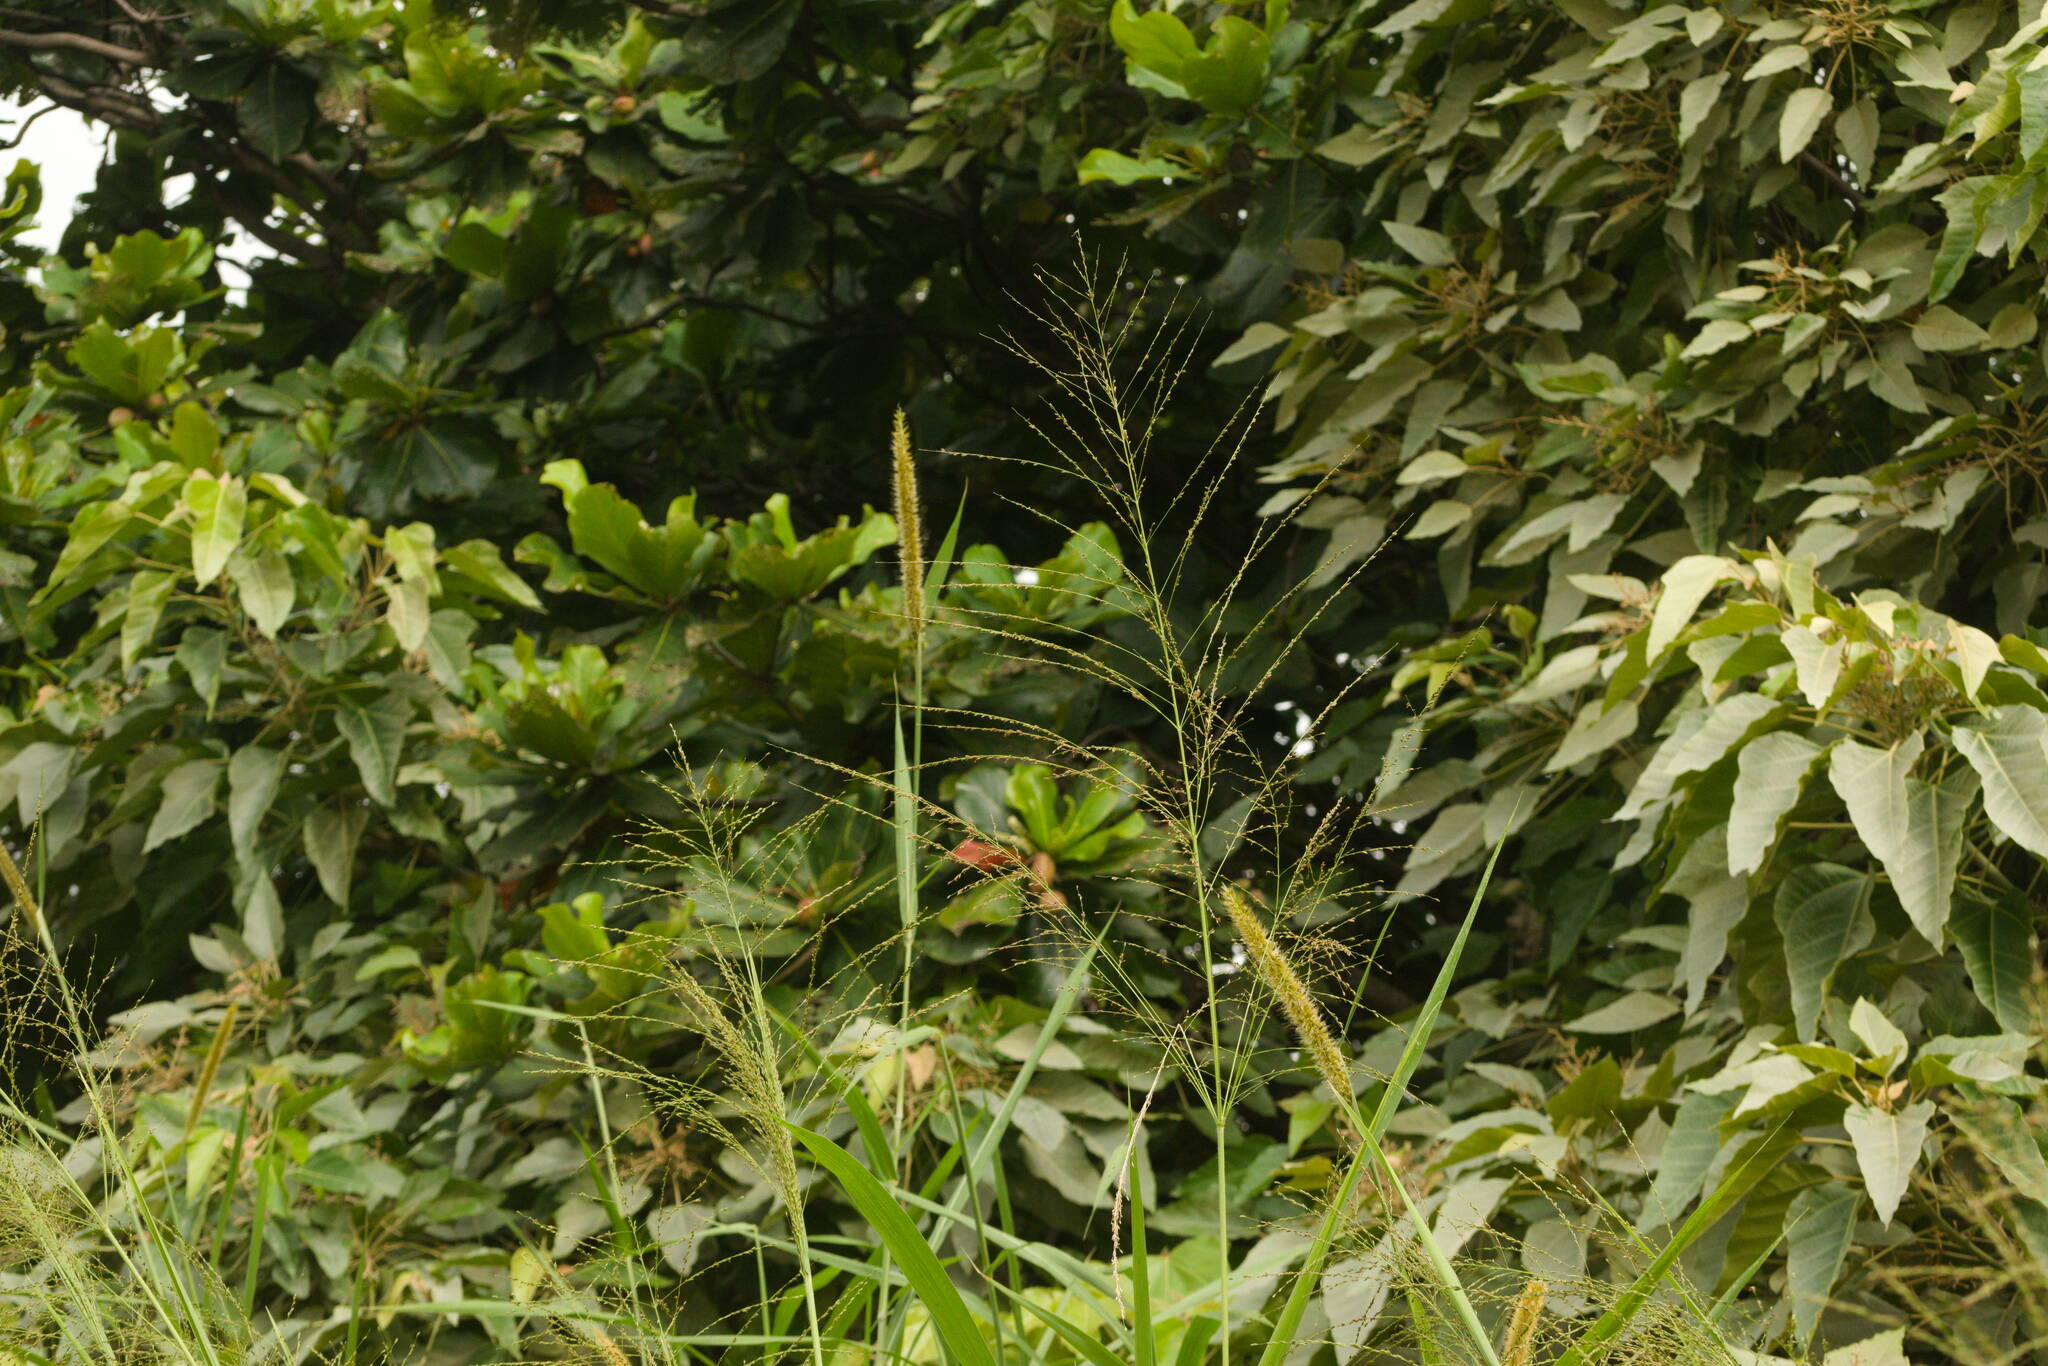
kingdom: Plantae
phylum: Tracheophyta
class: Liliopsida
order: Poales
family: Poaceae
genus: Megathyrsus
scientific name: Megathyrsus maximus
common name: Guineagrass
